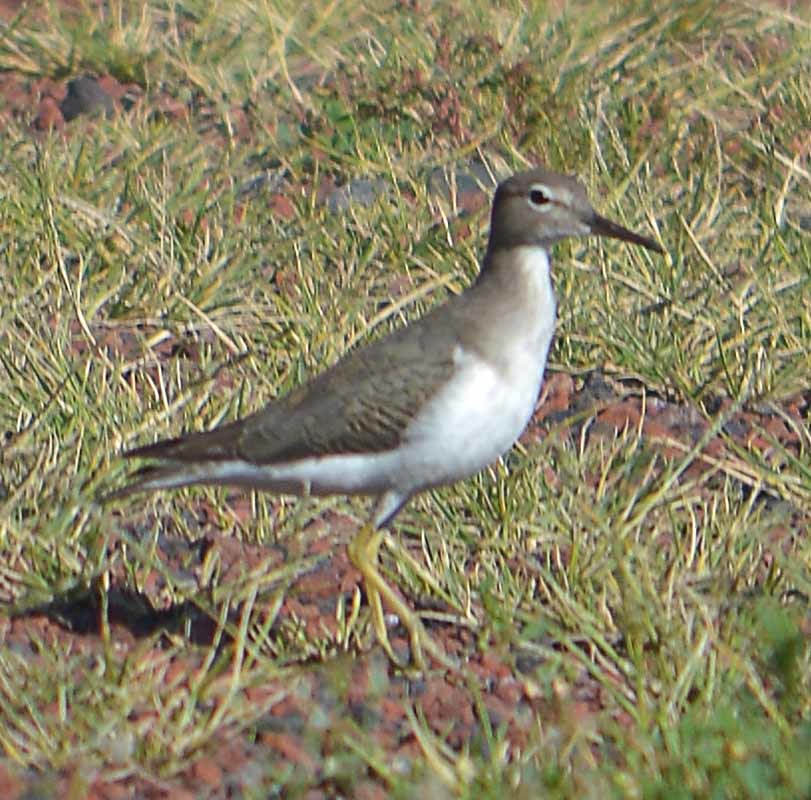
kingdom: Animalia
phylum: Chordata
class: Aves
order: Charadriiformes
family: Scolopacidae
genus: Actitis
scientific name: Actitis macularius
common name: Spotted sandpiper
